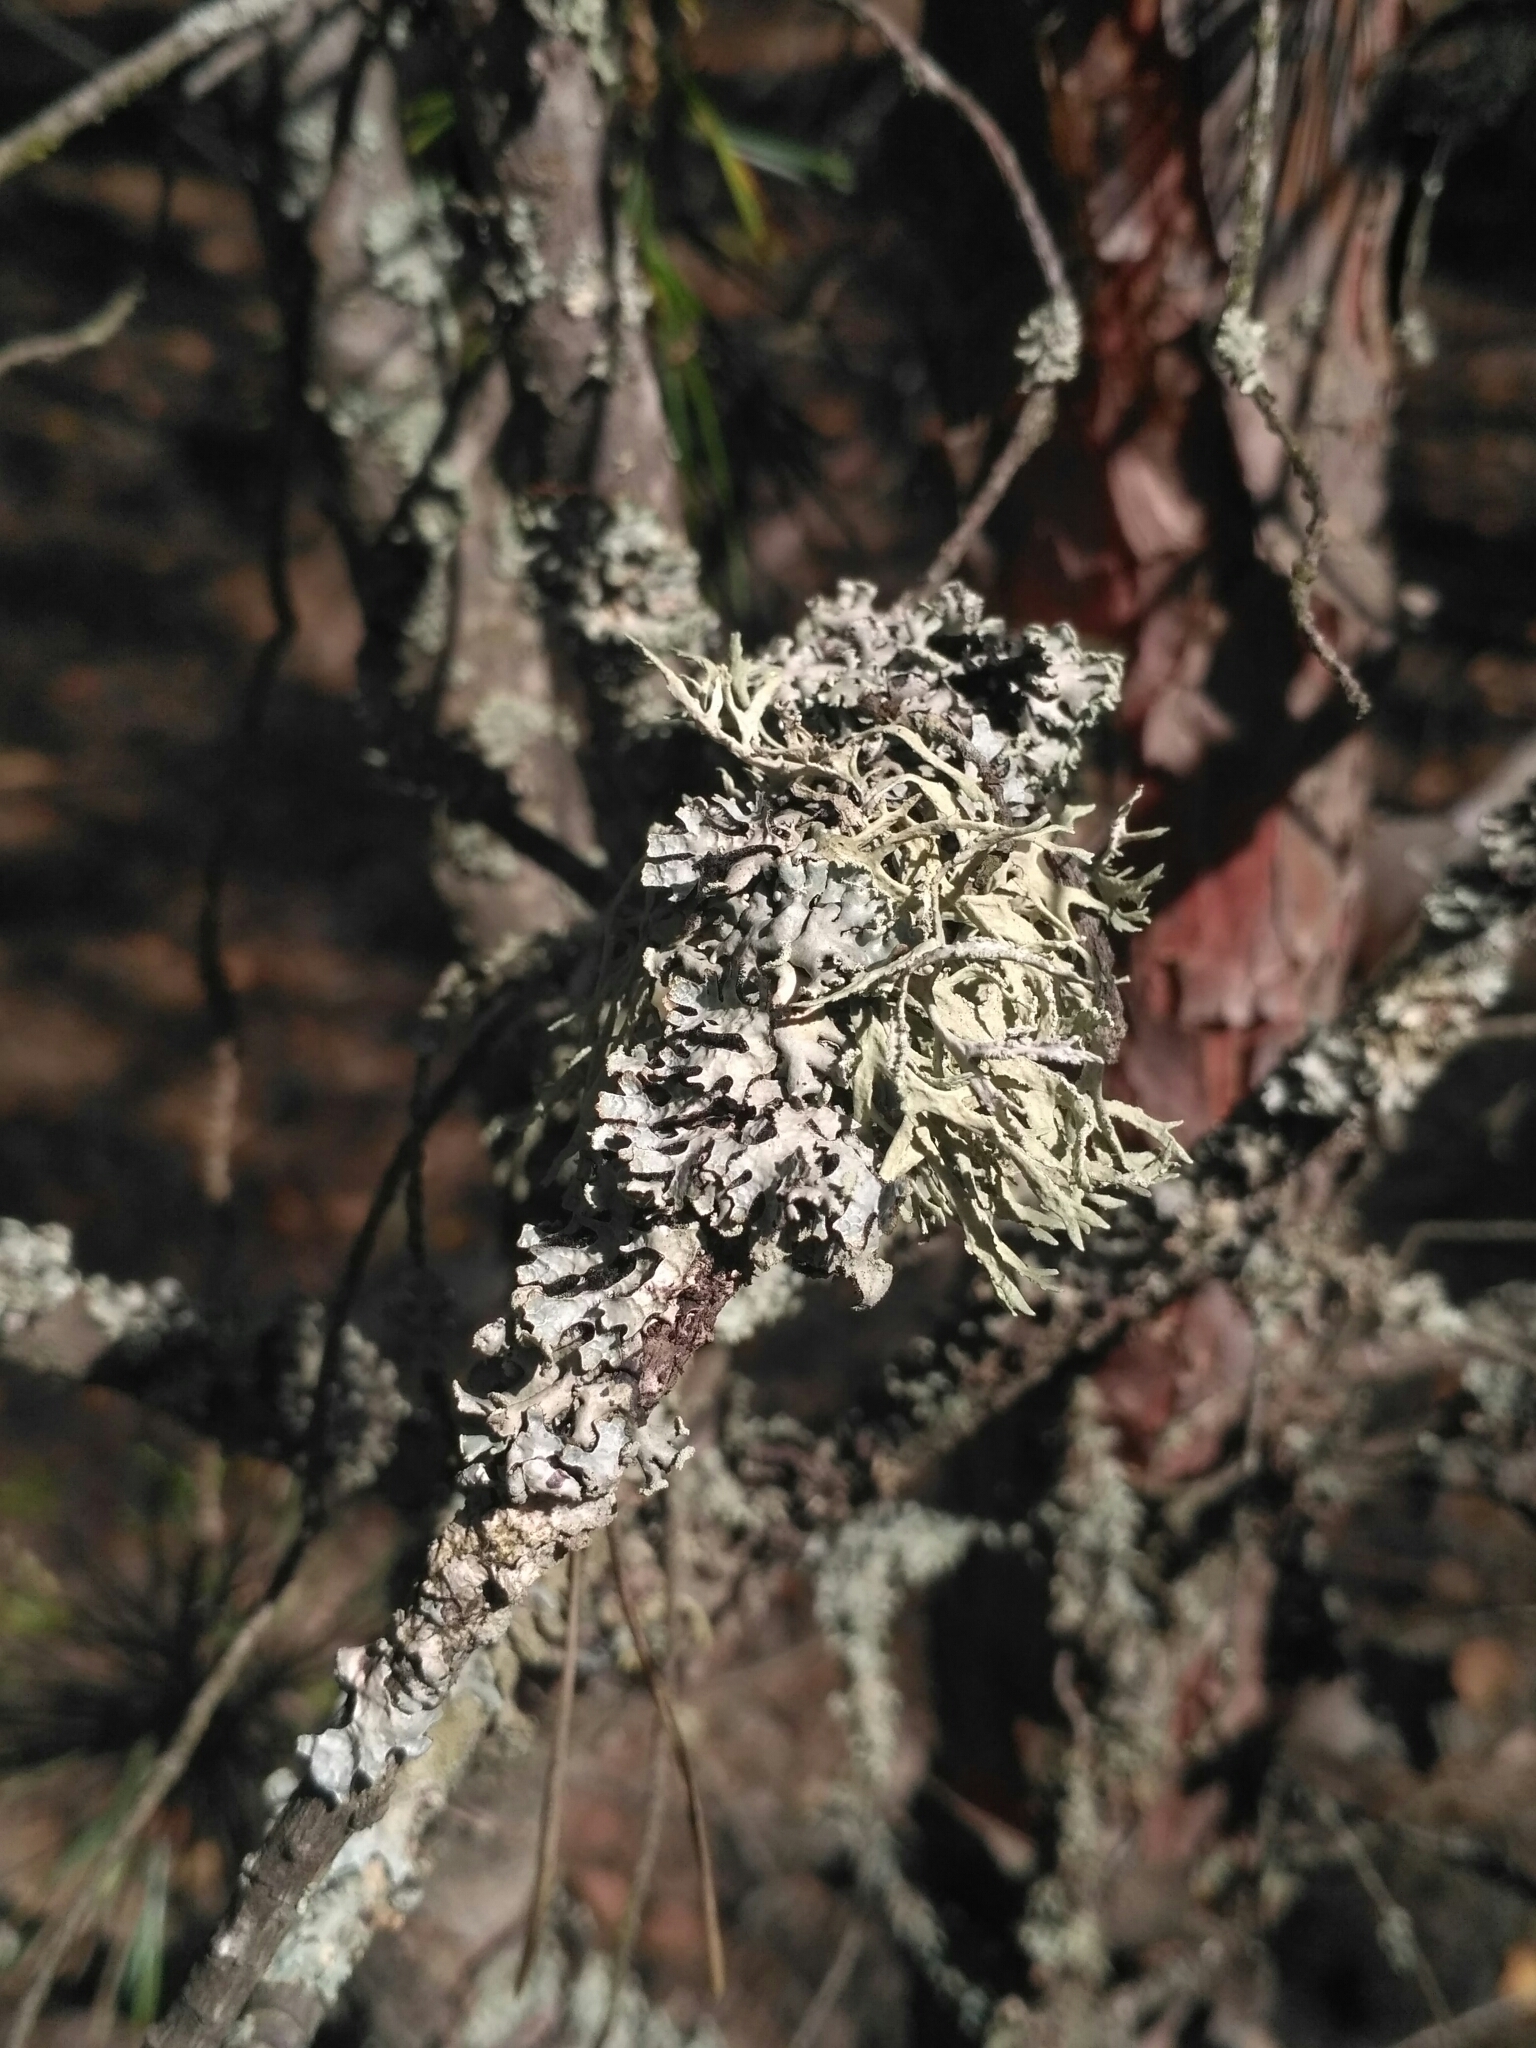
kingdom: Fungi
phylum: Ascomycota
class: Lecanoromycetes
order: Lecanorales
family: Parmeliaceae
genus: Evernia
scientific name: Evernia prunastri
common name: Oak moss
